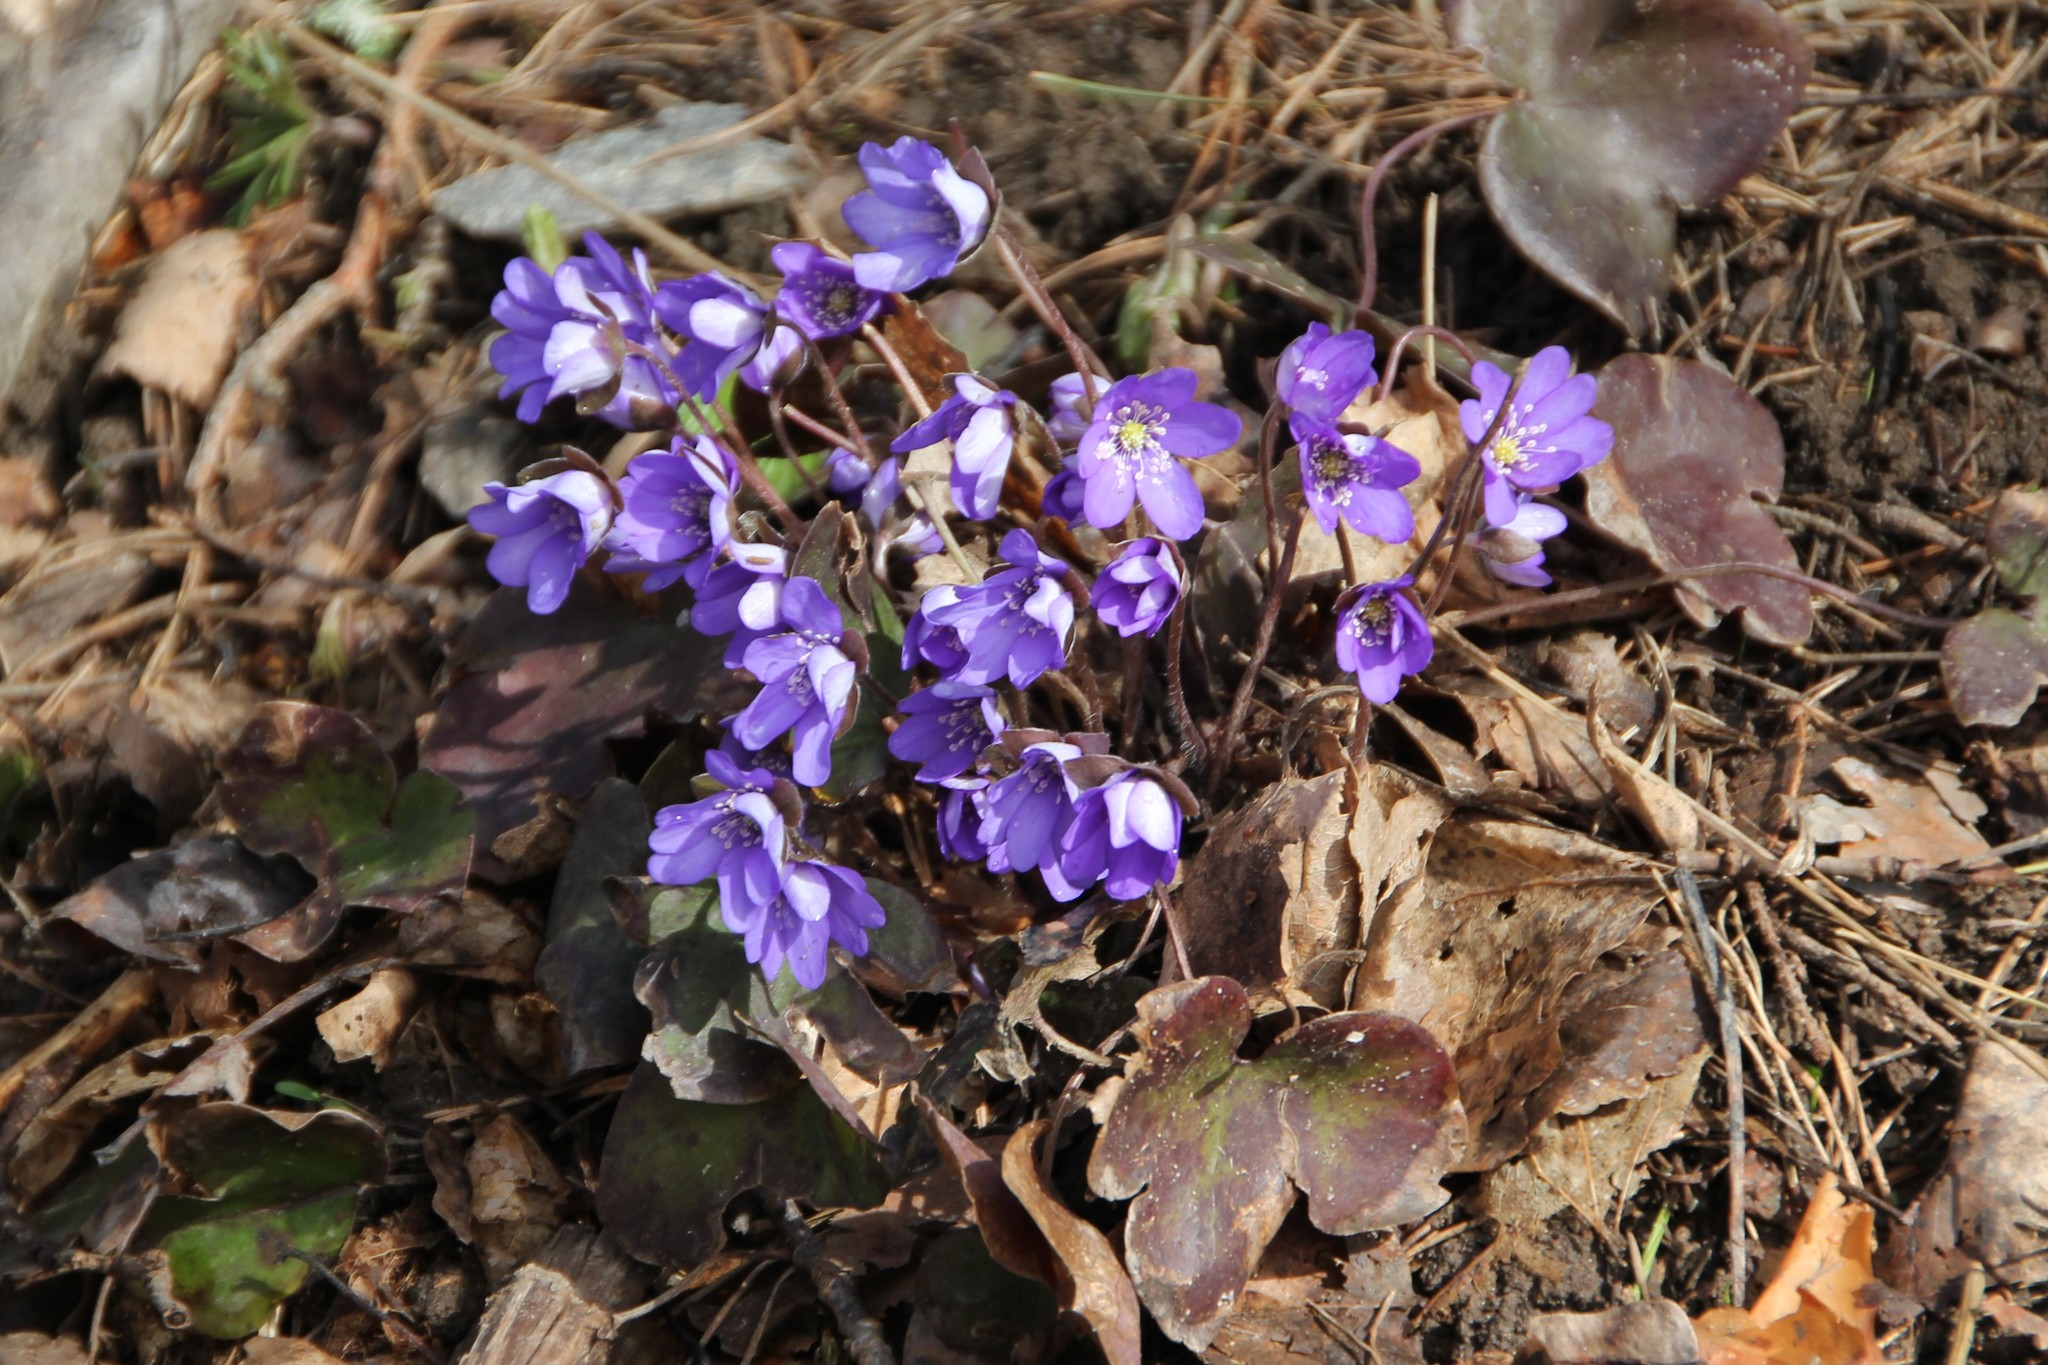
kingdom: Plantae
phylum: Tracheophyta
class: Magnoliopsida
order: Ranunculales
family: Ranunculaceae
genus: Hepatica
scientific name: Hepatica nobilis
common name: Liverleaf
